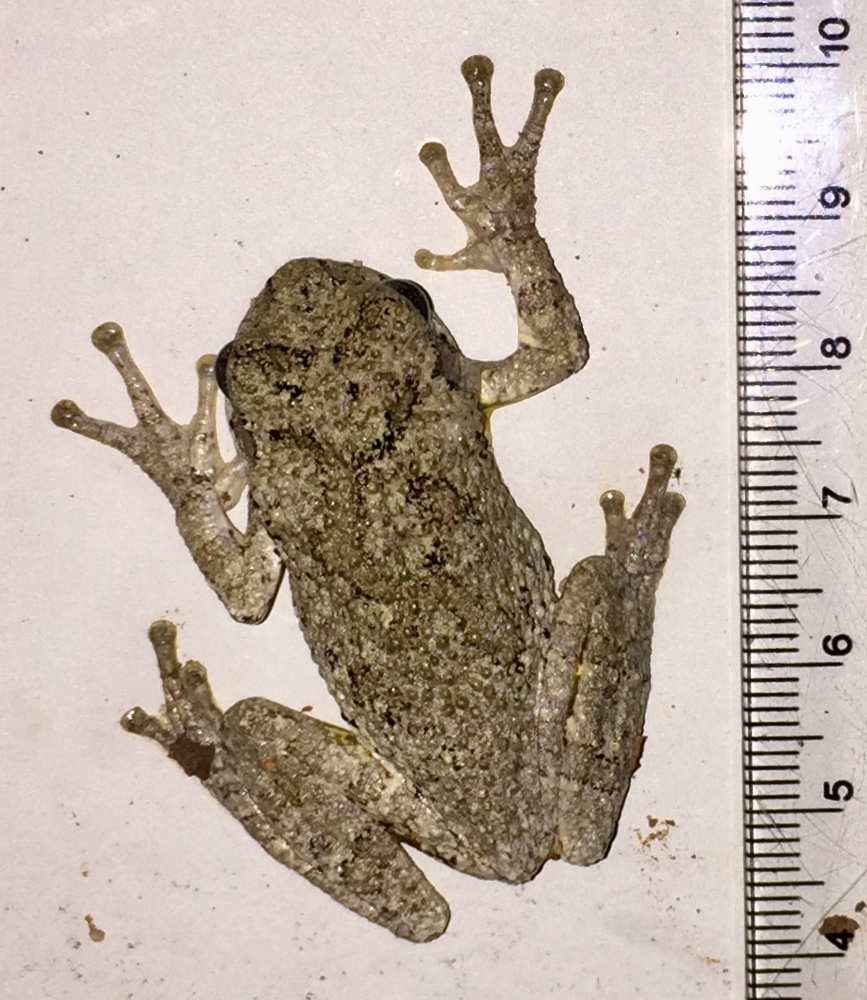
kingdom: Animalia
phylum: Chordata
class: Amphibia
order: Anura
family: Hylidae
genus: Dryophytes
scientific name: Dryophytes chrysoscelis
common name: Cope's gray treefrog
